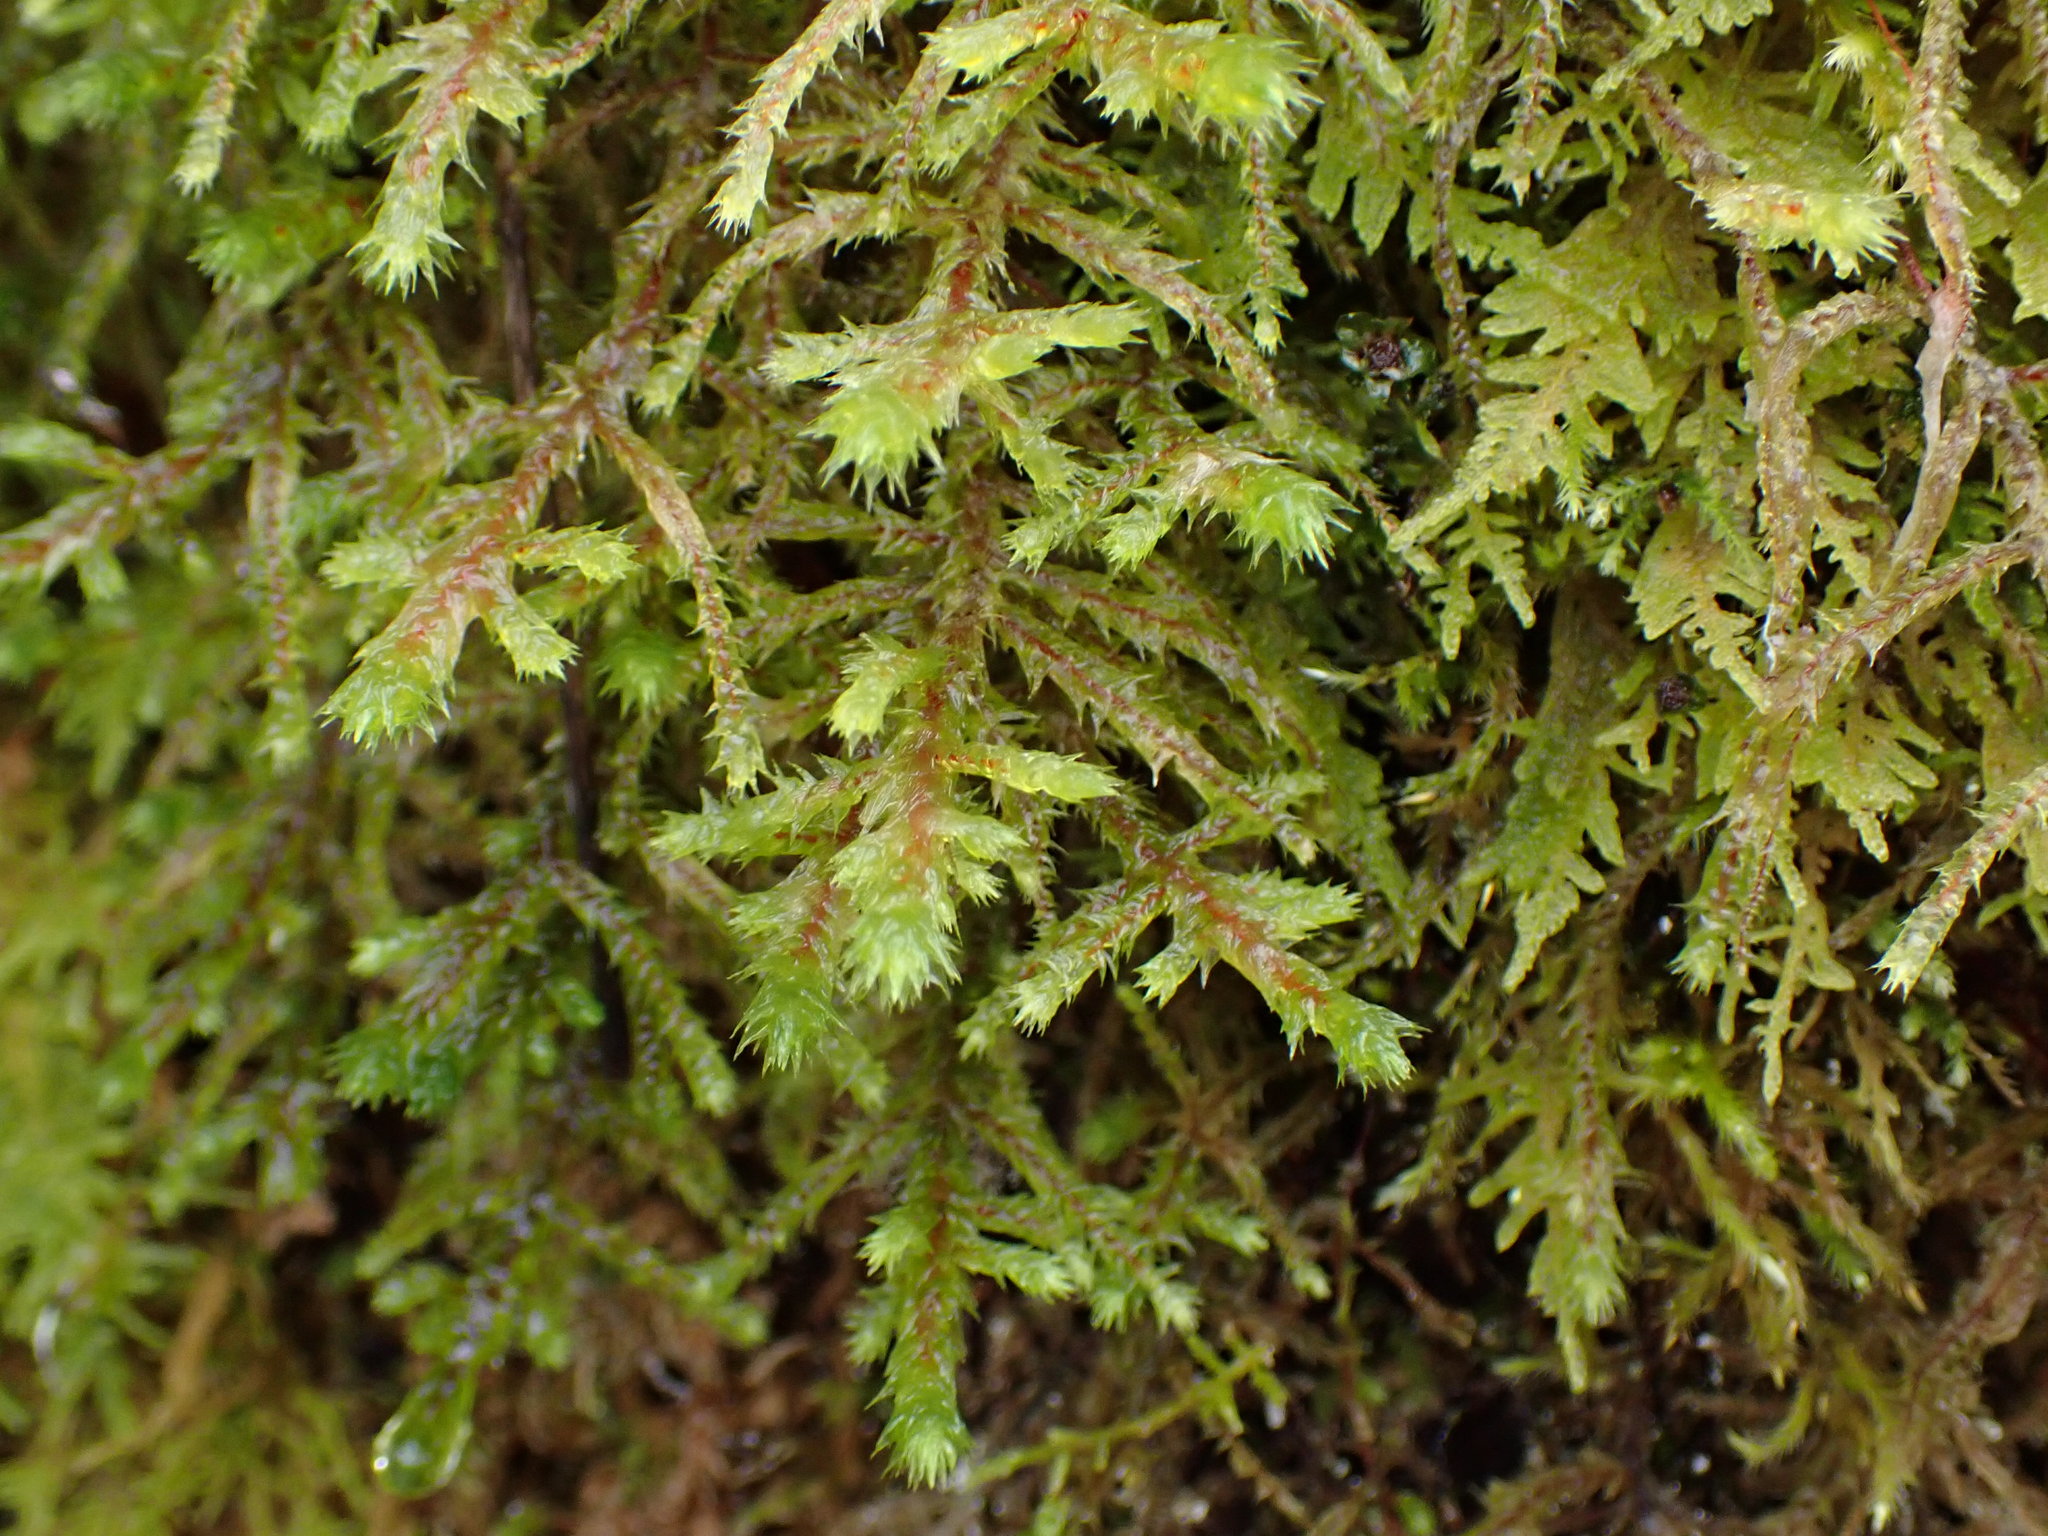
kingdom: Plantae
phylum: Bryophyta
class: Bryopsida
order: Hypnales
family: Hylocomiaceae
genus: Hylocomiadelphus
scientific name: Hylocomiadelphus triquetrus
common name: Rough goose neck moss
